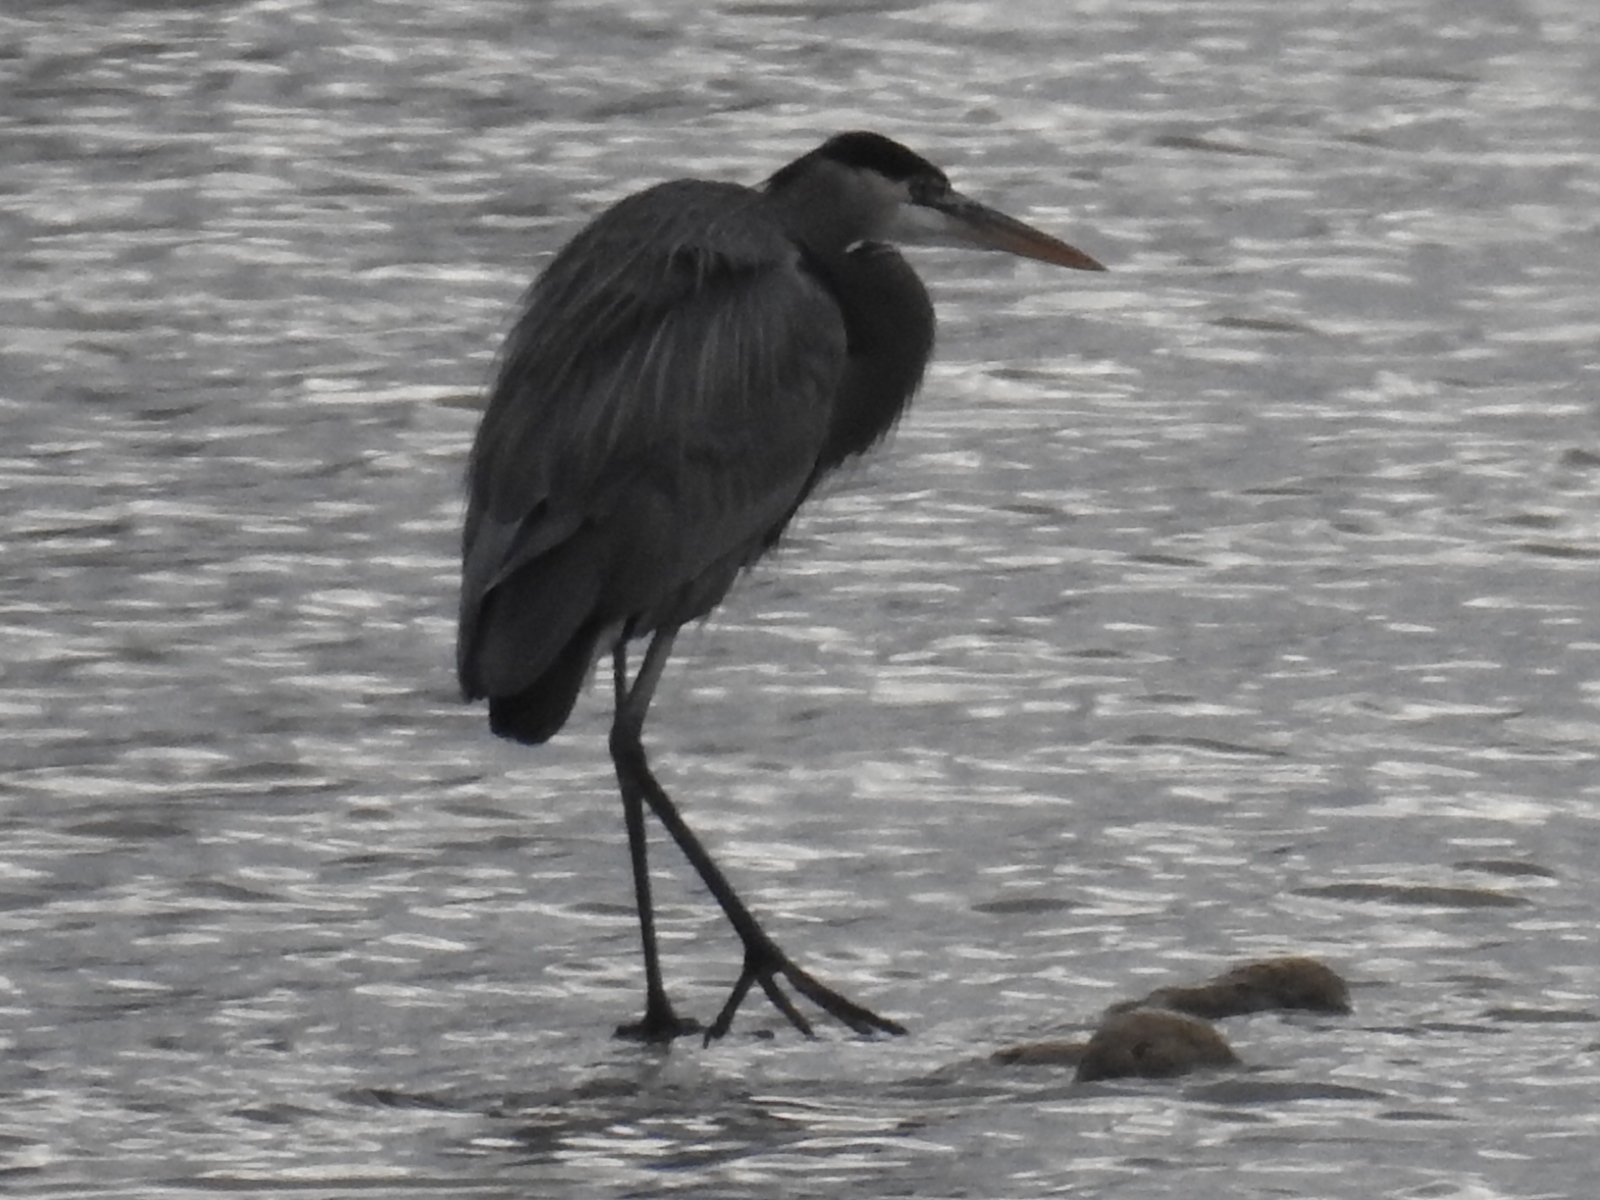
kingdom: Animalia
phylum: Chordata
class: Aves
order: Pelecaniformes
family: Ardeidae
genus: Ardea
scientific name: Ardea herodias
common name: Great blue heron
